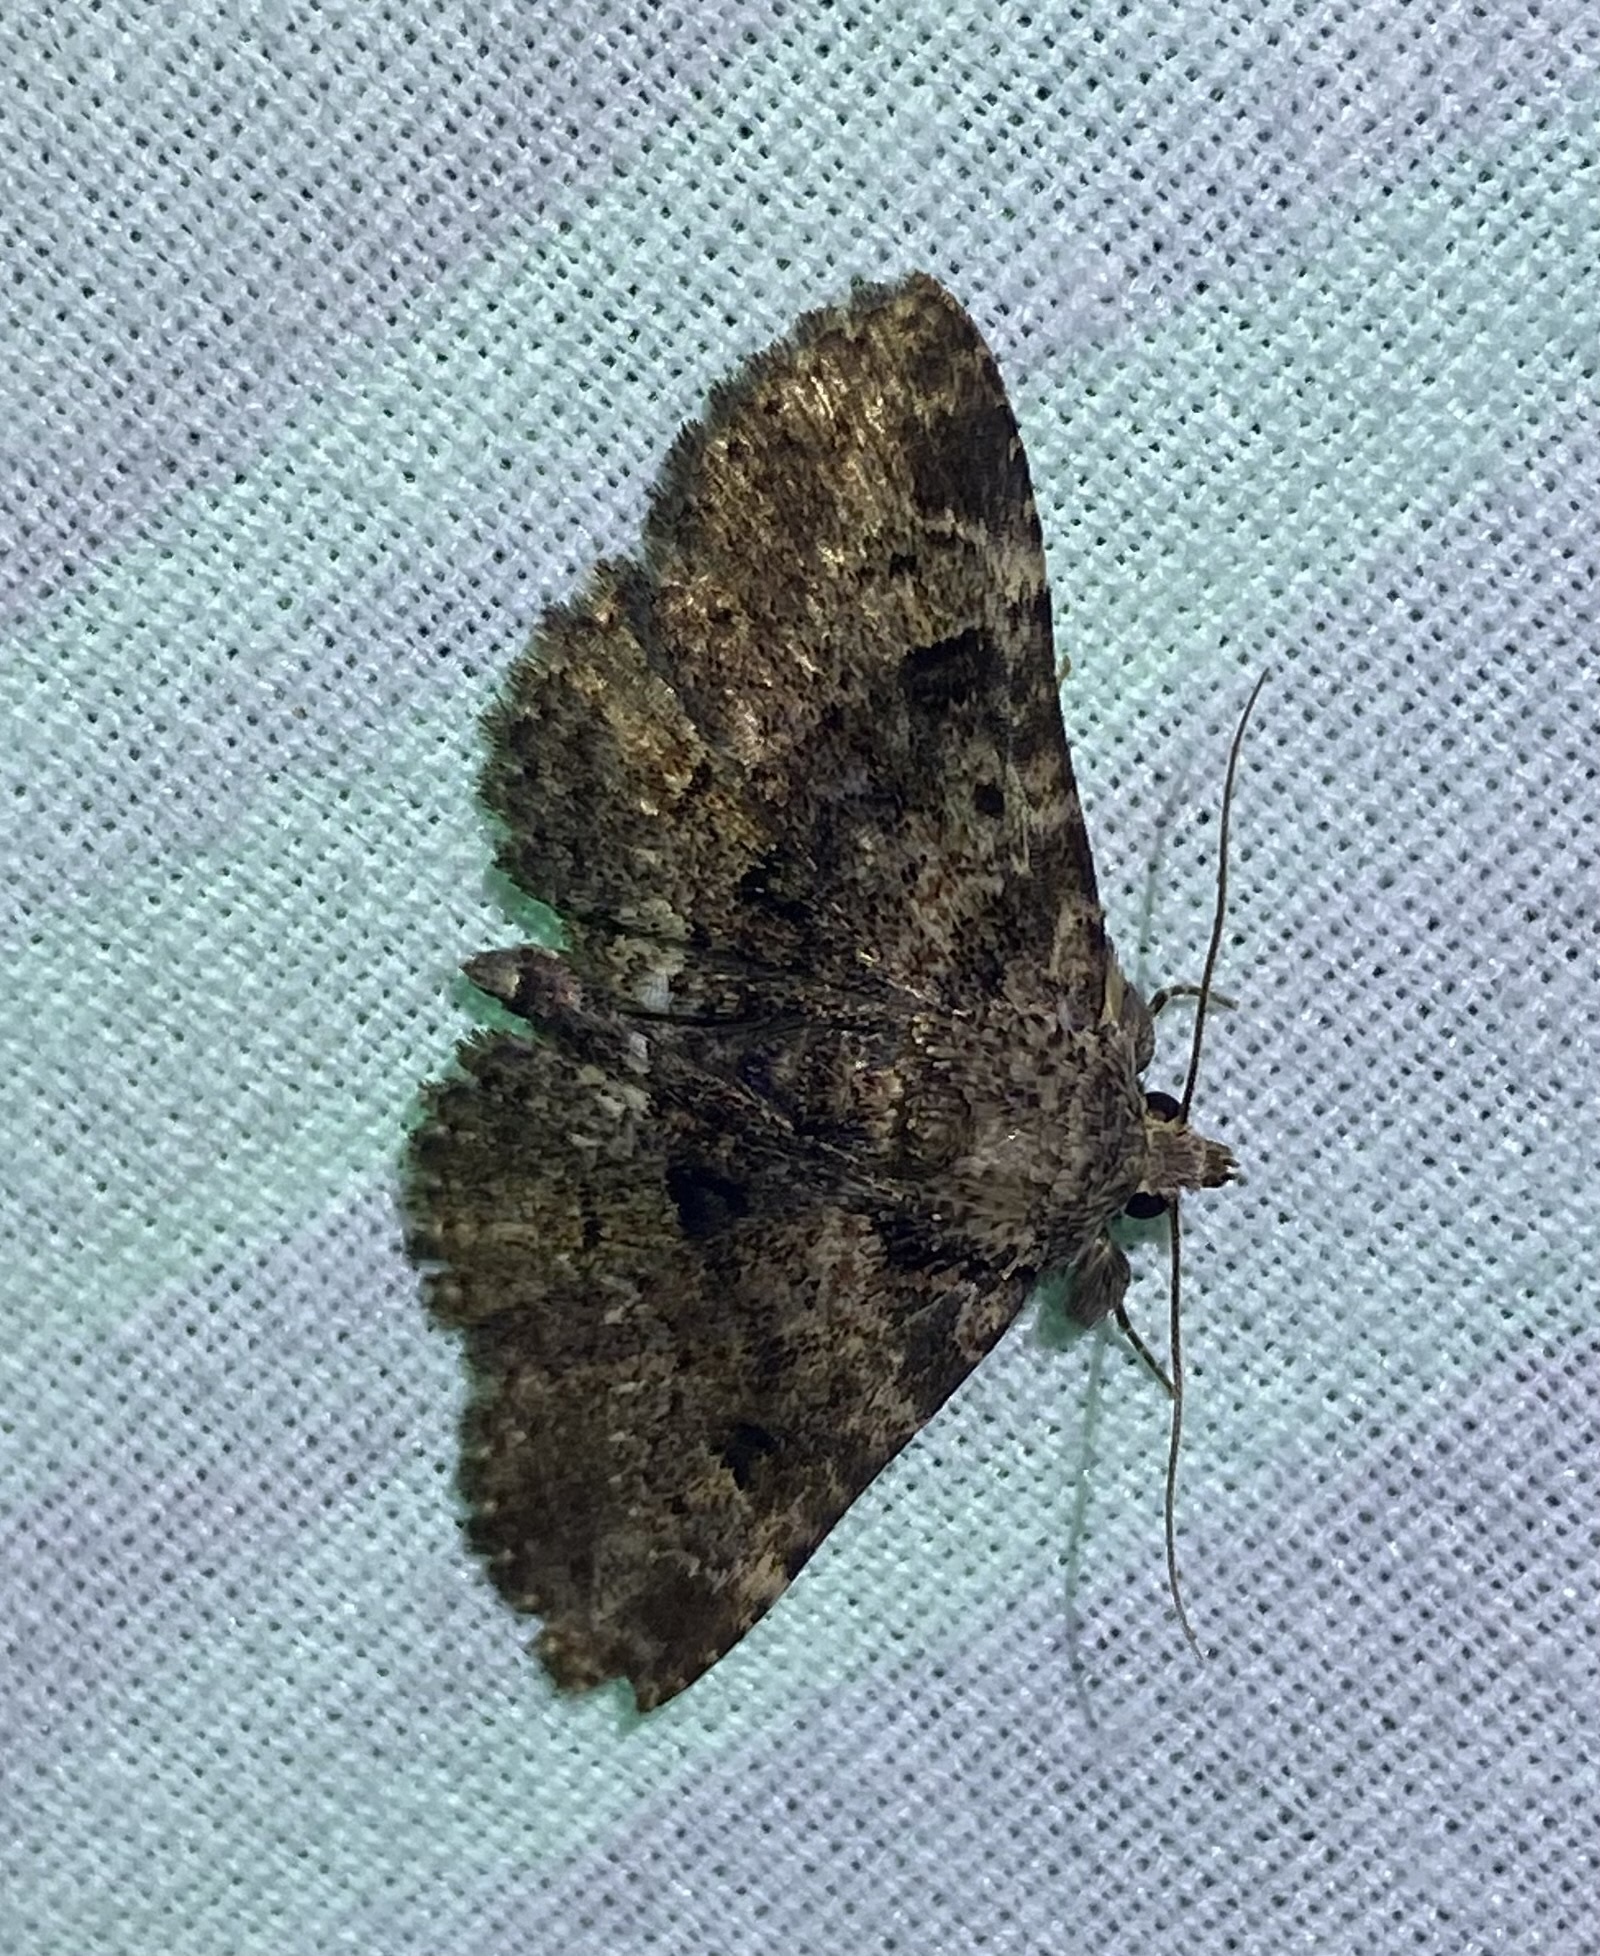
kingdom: Animalia
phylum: Arthropoda
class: Insecta
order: Lepidoptera
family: Erebidae
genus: Metalectra
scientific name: Metalectra discalis
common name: Common fungus moth
